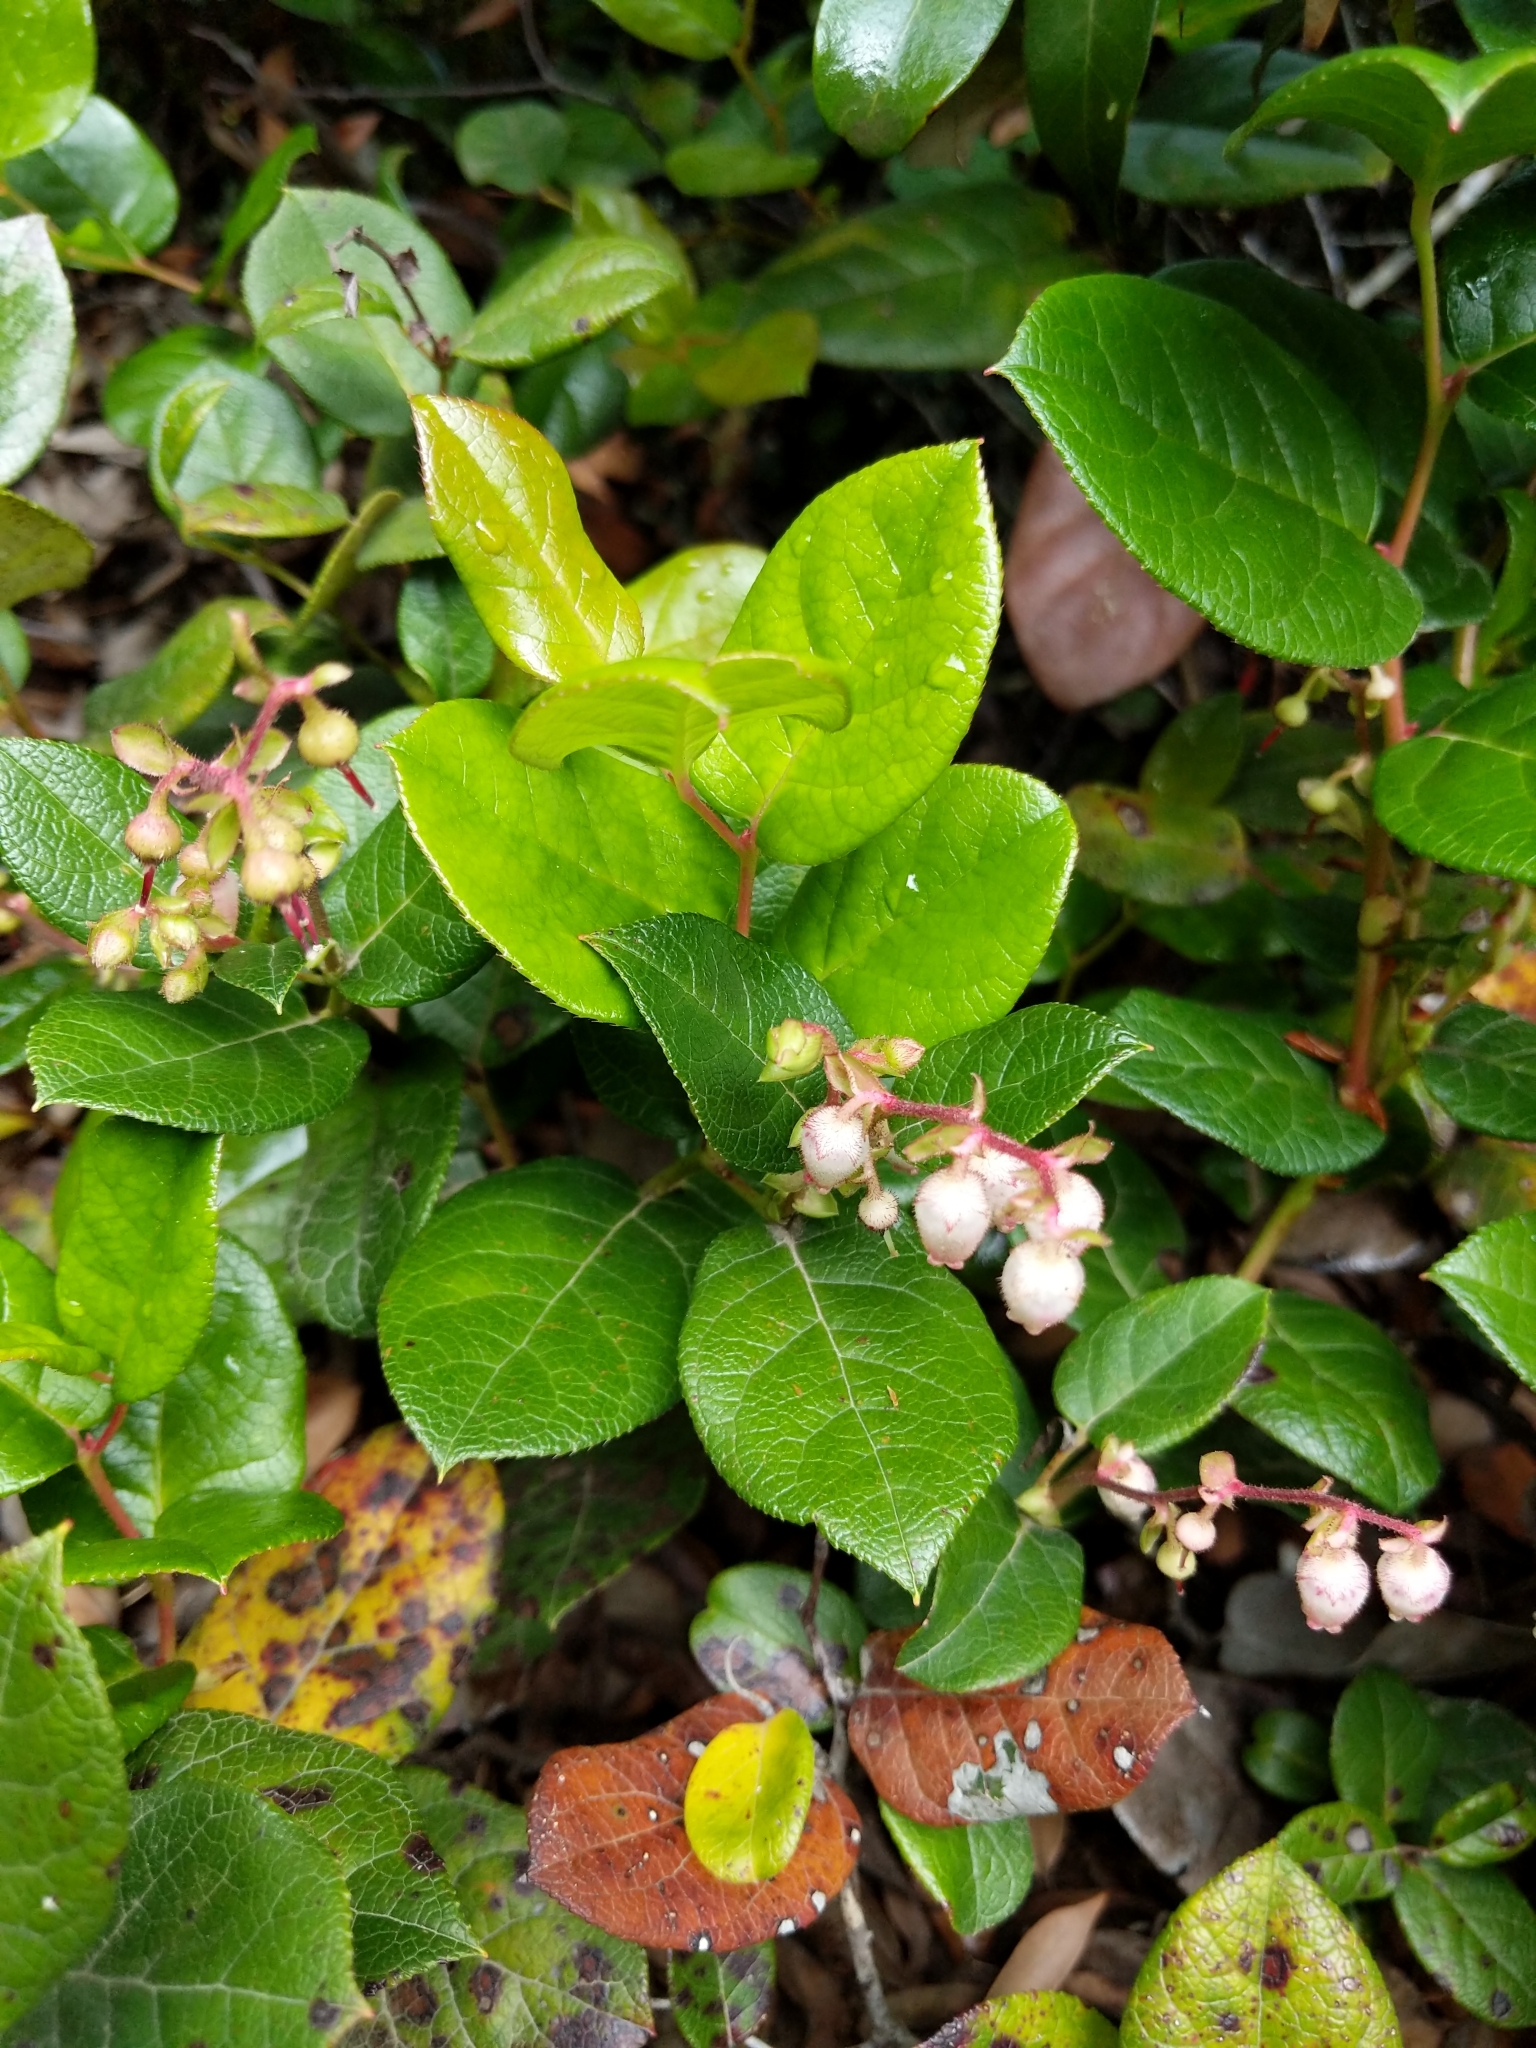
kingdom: Plantae
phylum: Tracheophyta
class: Magnoliopsida
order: Ericales
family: Ericaceae
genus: Gaultheria
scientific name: Gaultheria shallon
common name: Shallon
